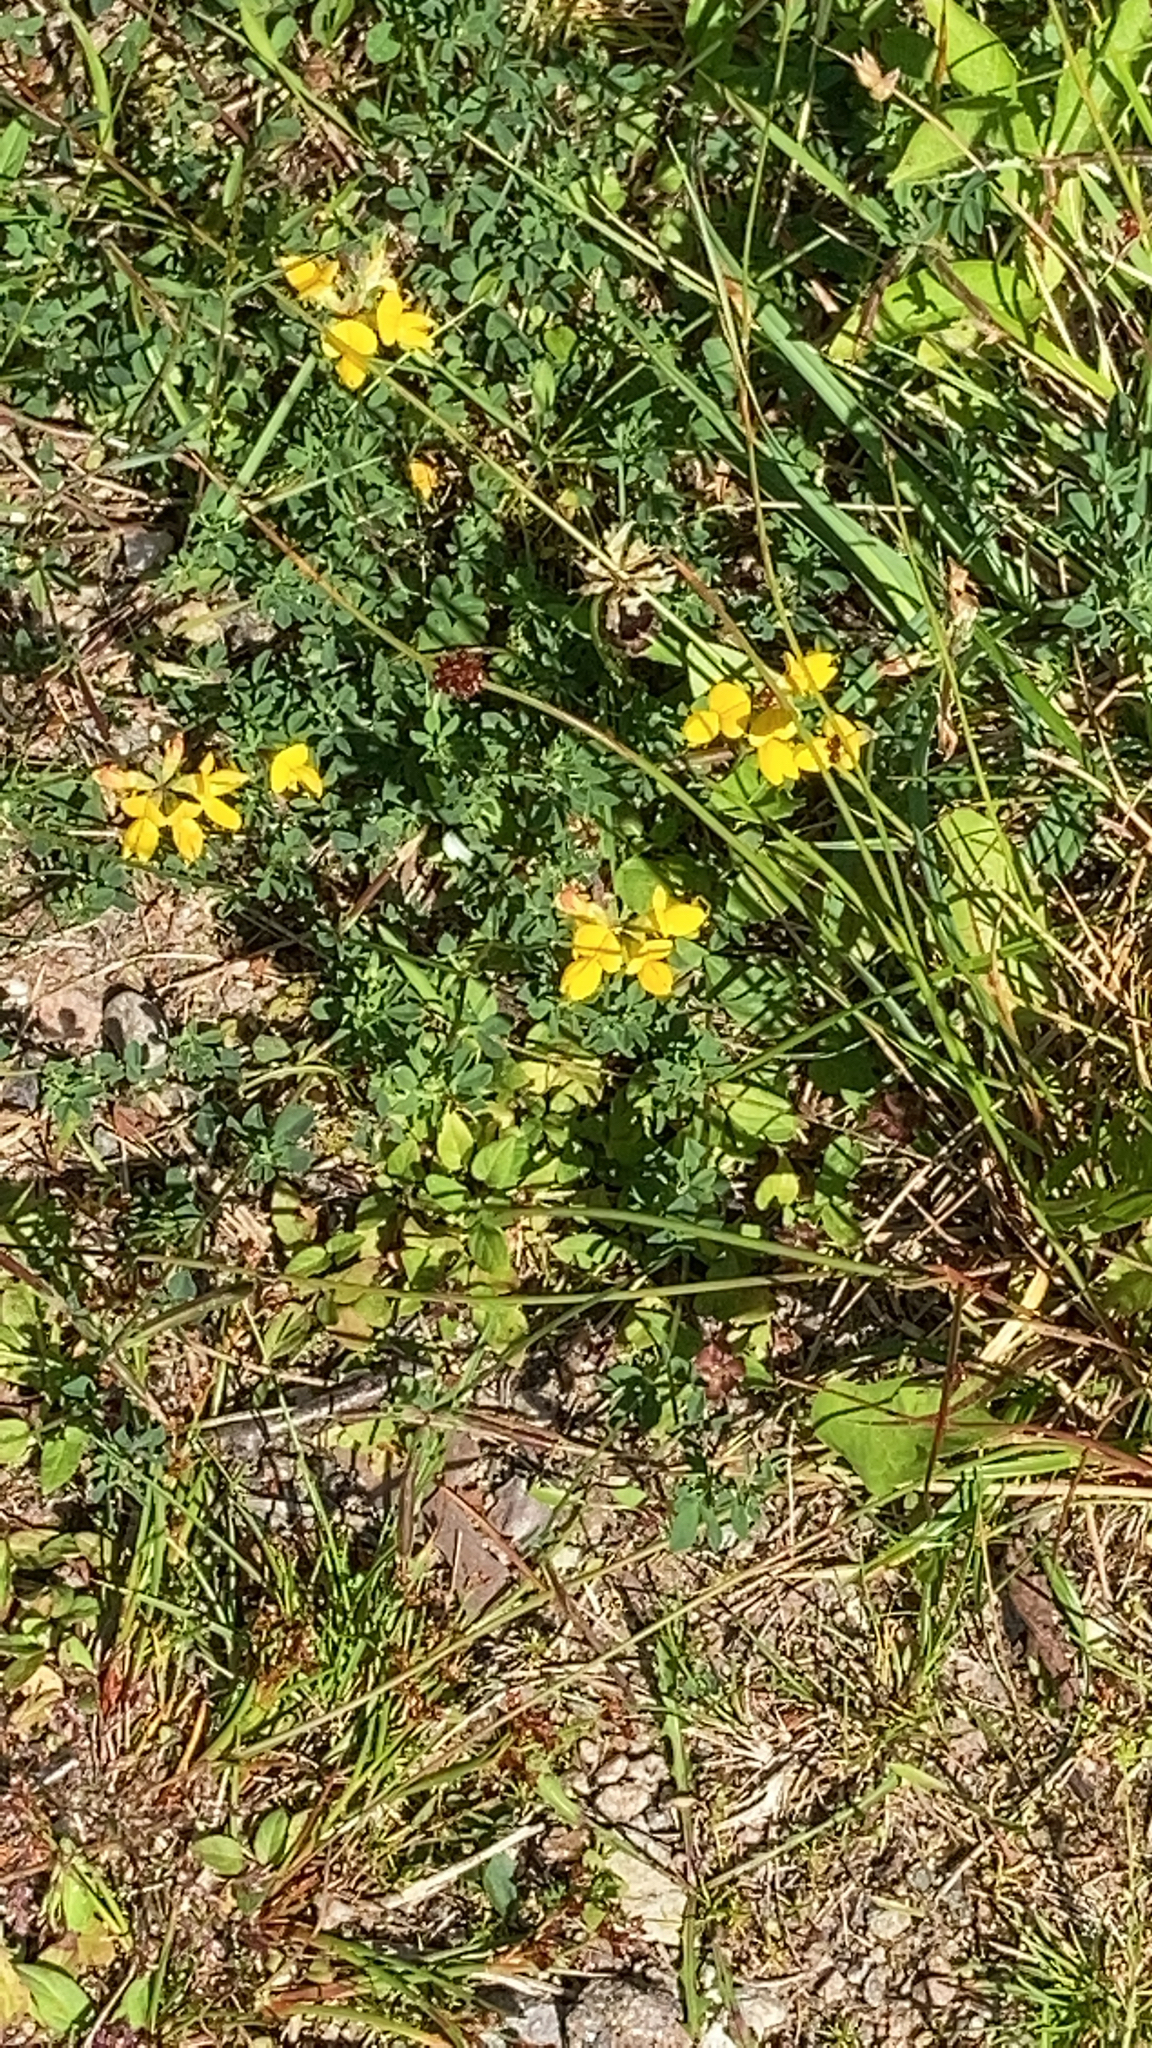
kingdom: Plantae
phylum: Tracheophyta
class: Magnoliopsida
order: Fabales
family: Fabaceae
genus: Lotus
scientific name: Lotus corniculatus
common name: Common bird's-foot-trefoil
